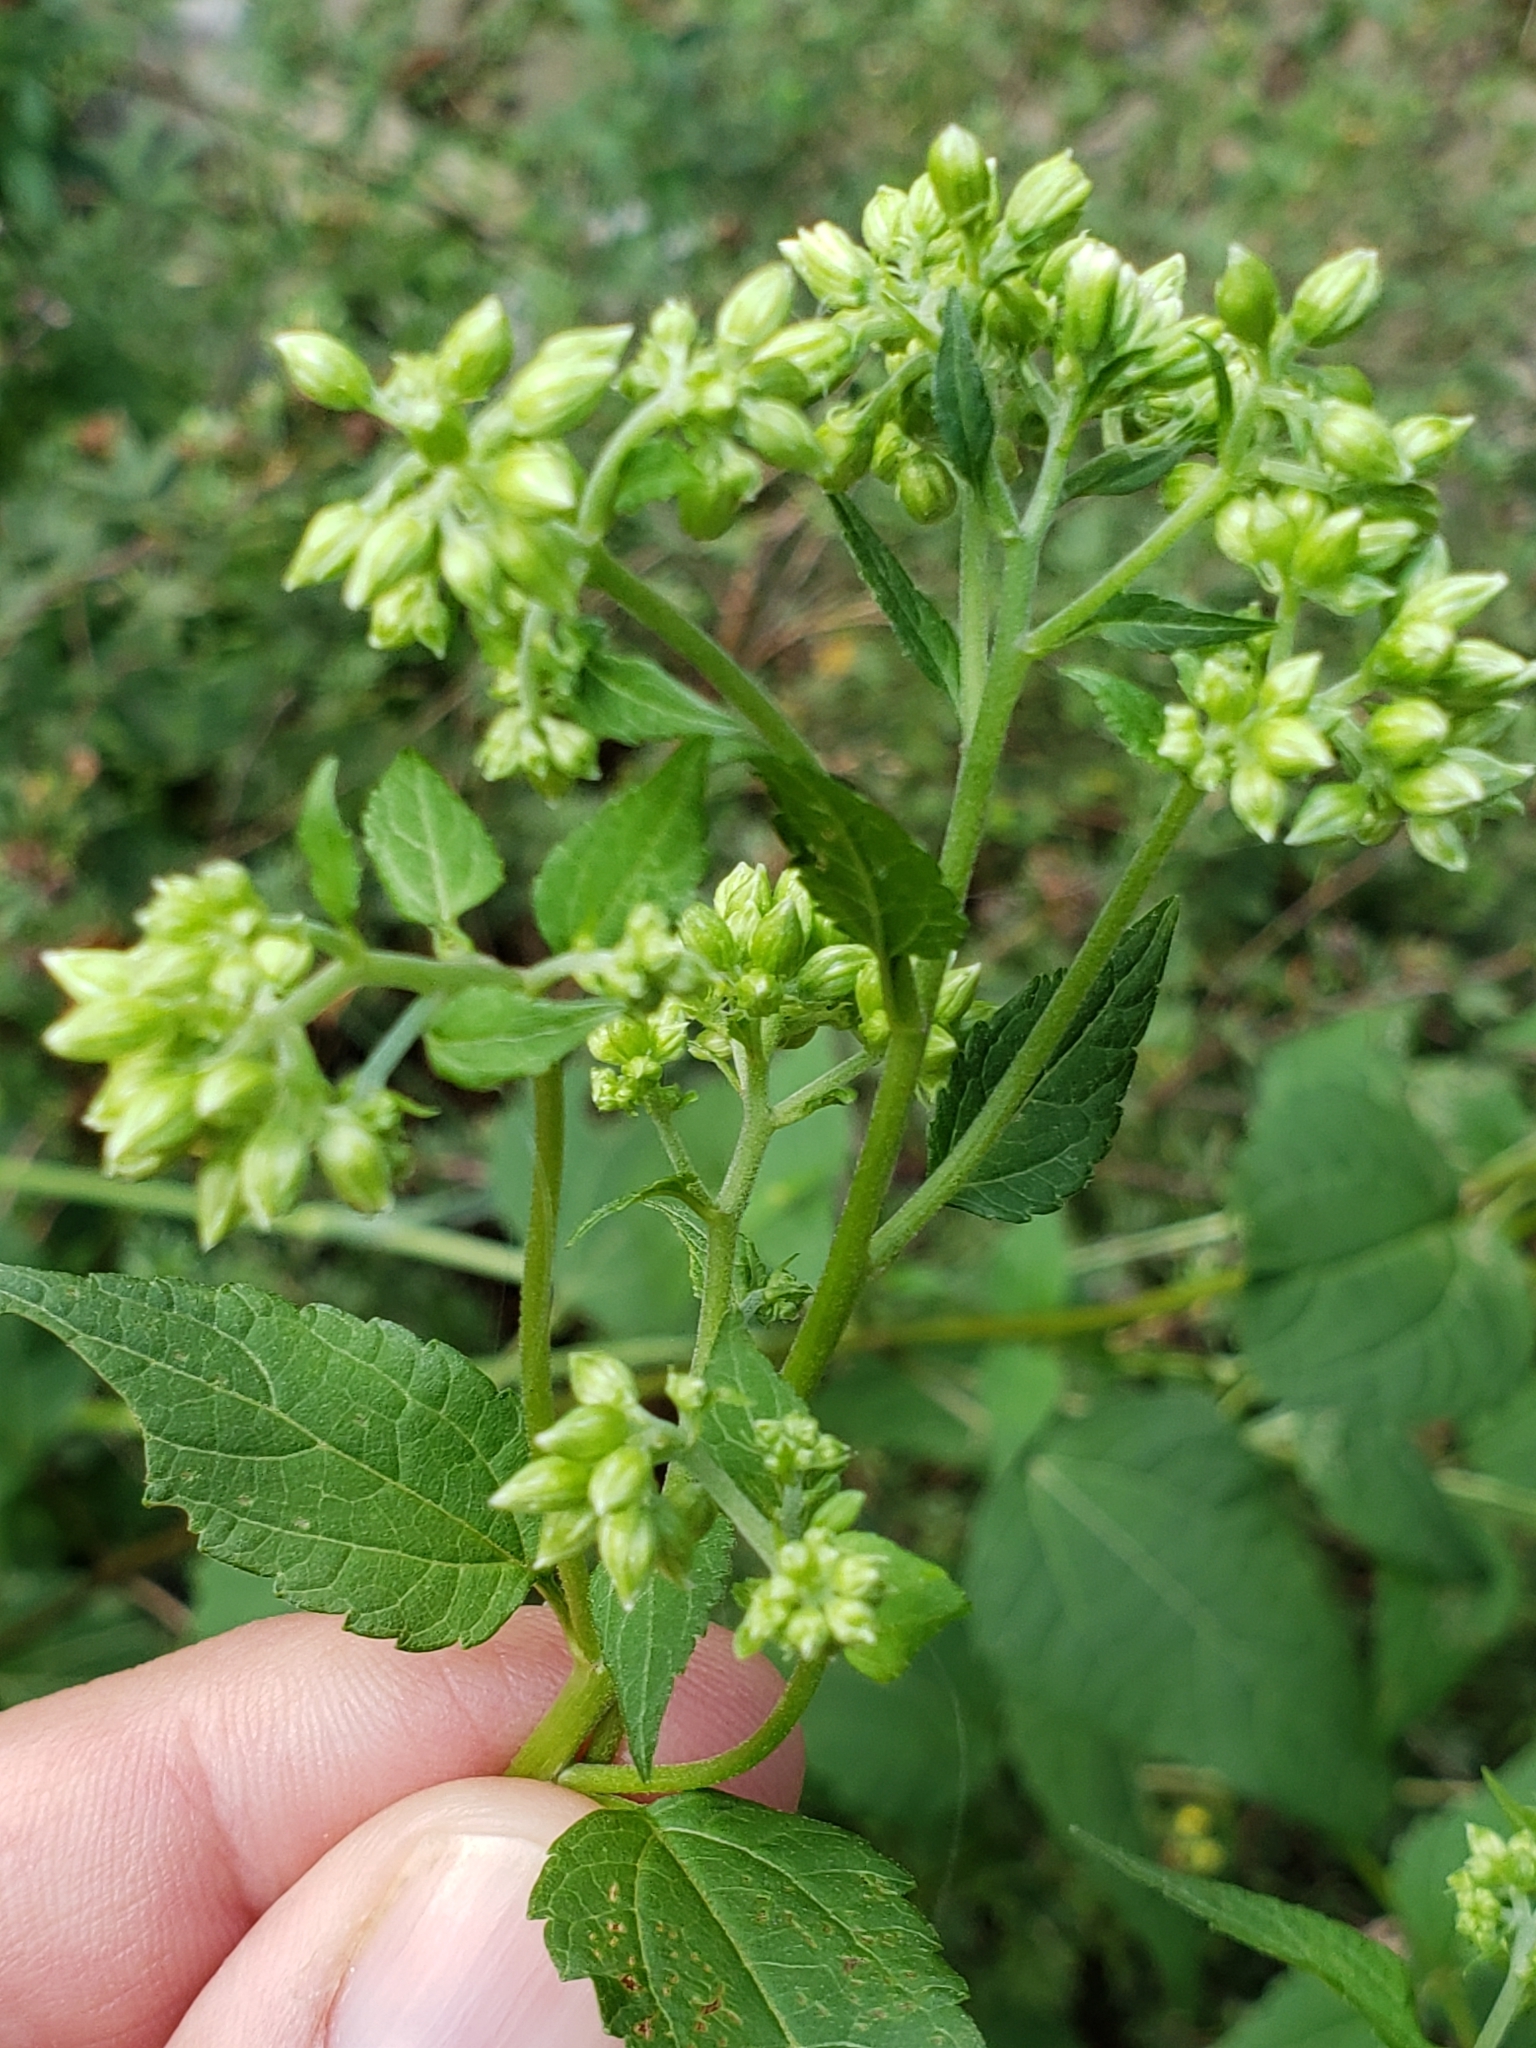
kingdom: Plantae
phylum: Tracheophyta
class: Magnoliopsida
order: Asterales
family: Asteraceae
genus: Ageratina
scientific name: Ageratina altissima
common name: White snakeroot
